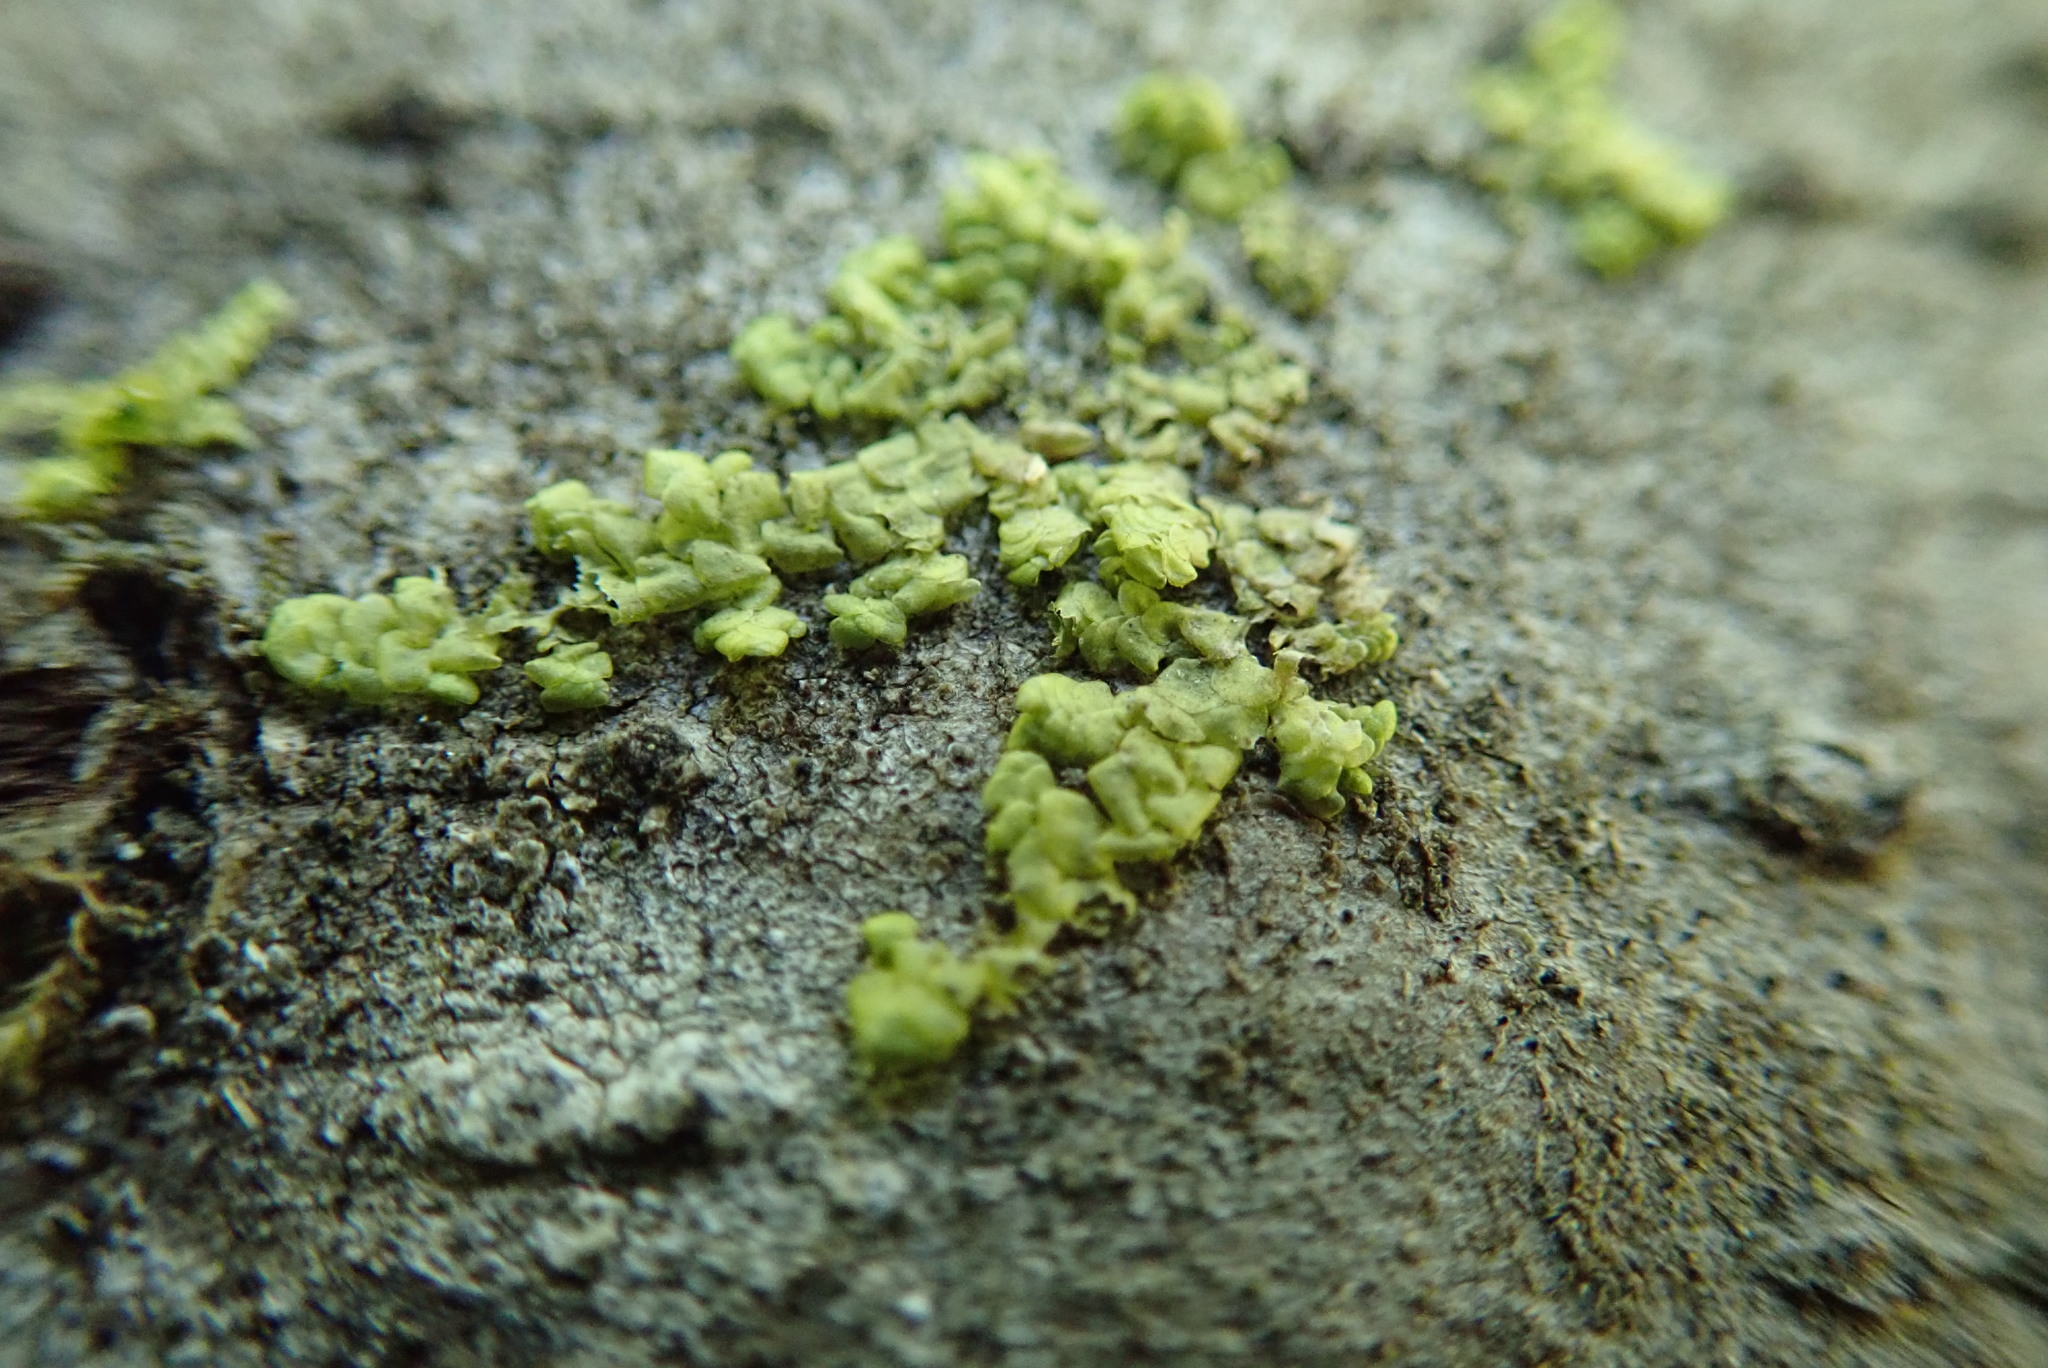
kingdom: Plantae
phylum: Marchantiophyta
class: Jungermanniopsida
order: Porellales
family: Radulaceae
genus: Radula
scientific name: Radula complanata
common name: Flat-leaved scalewort
